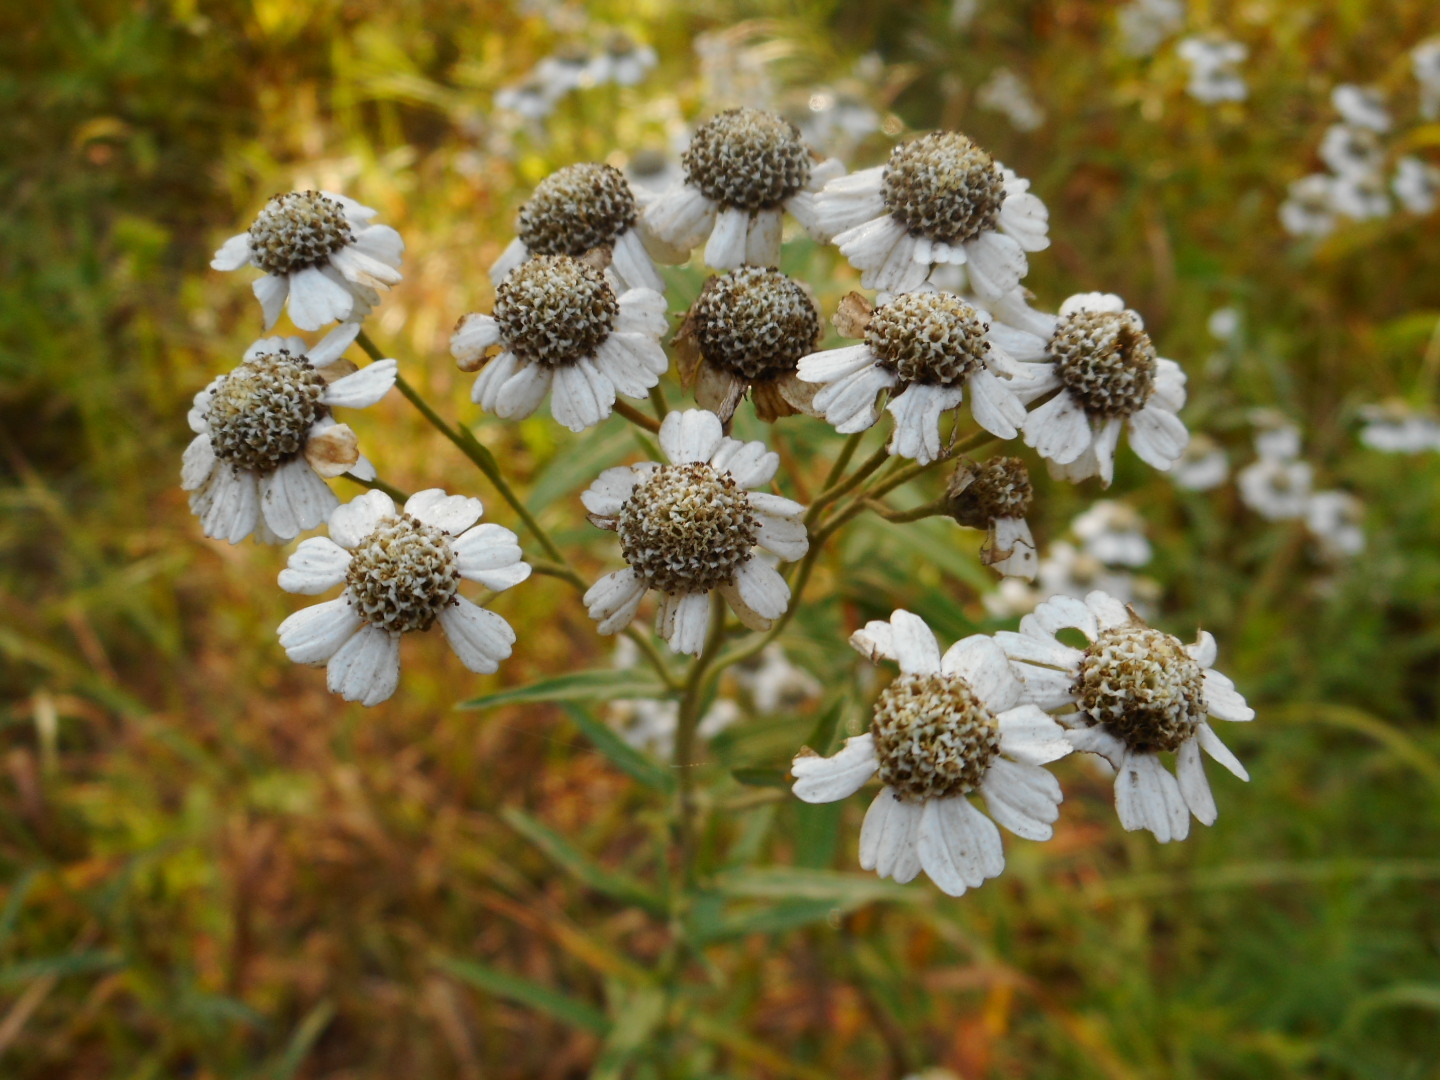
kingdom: Plantae
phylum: Tracheophyta
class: Magnoliopsida
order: Asterales
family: Asteraceae
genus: Achillea
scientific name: Achillea ptarmica
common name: Sneezeweed
